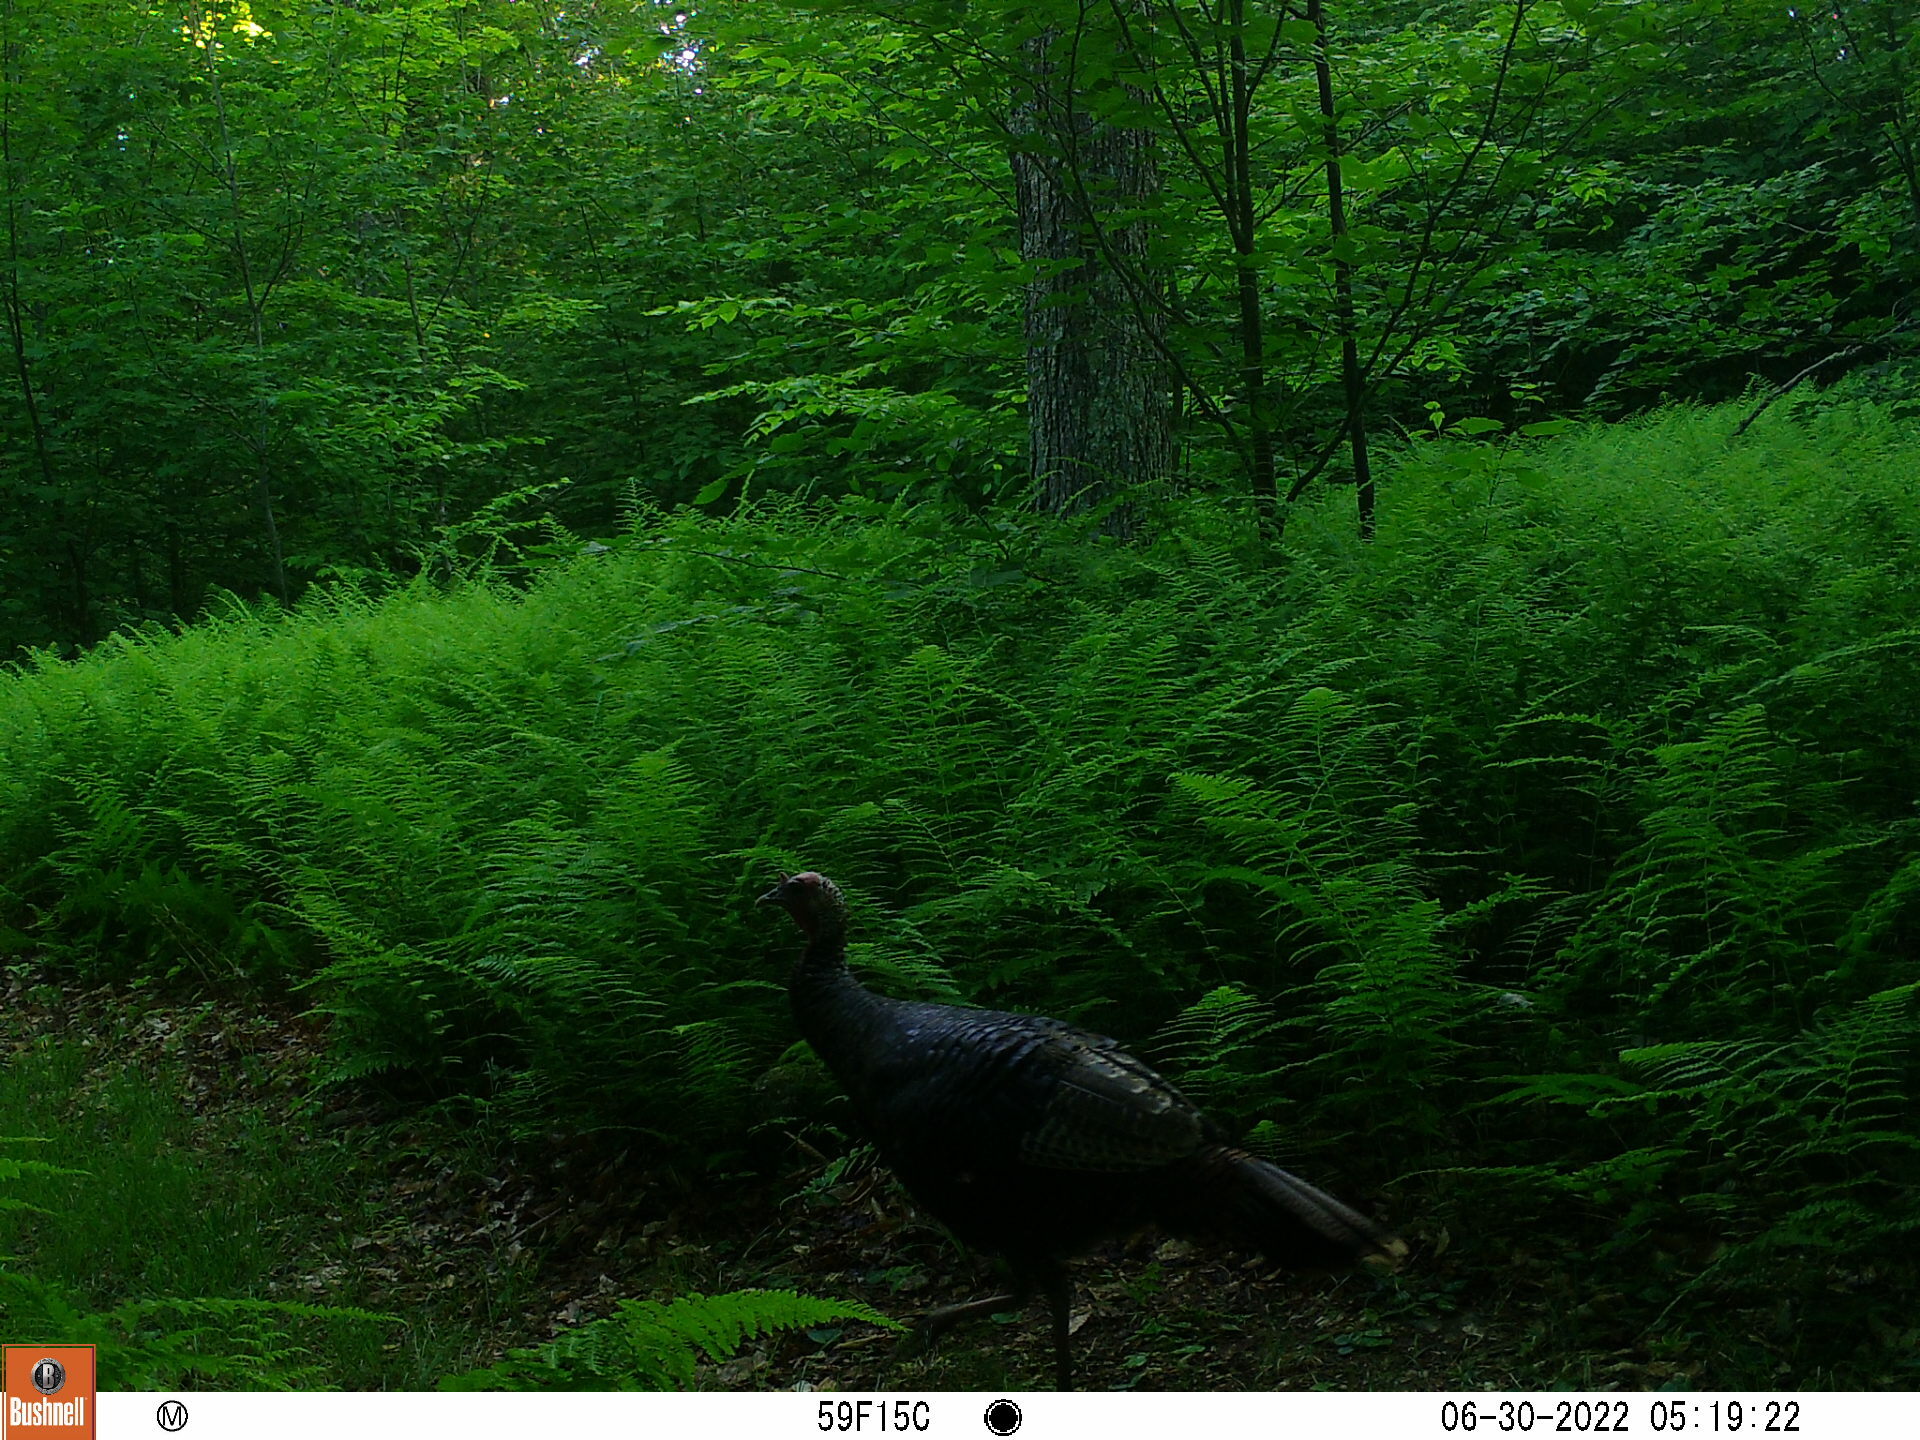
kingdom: Animalia
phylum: Chordata
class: Aves
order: Galliformes
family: Phasianidae
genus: Meleagris
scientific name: Meleagris gallopavo
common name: Wild turkey
